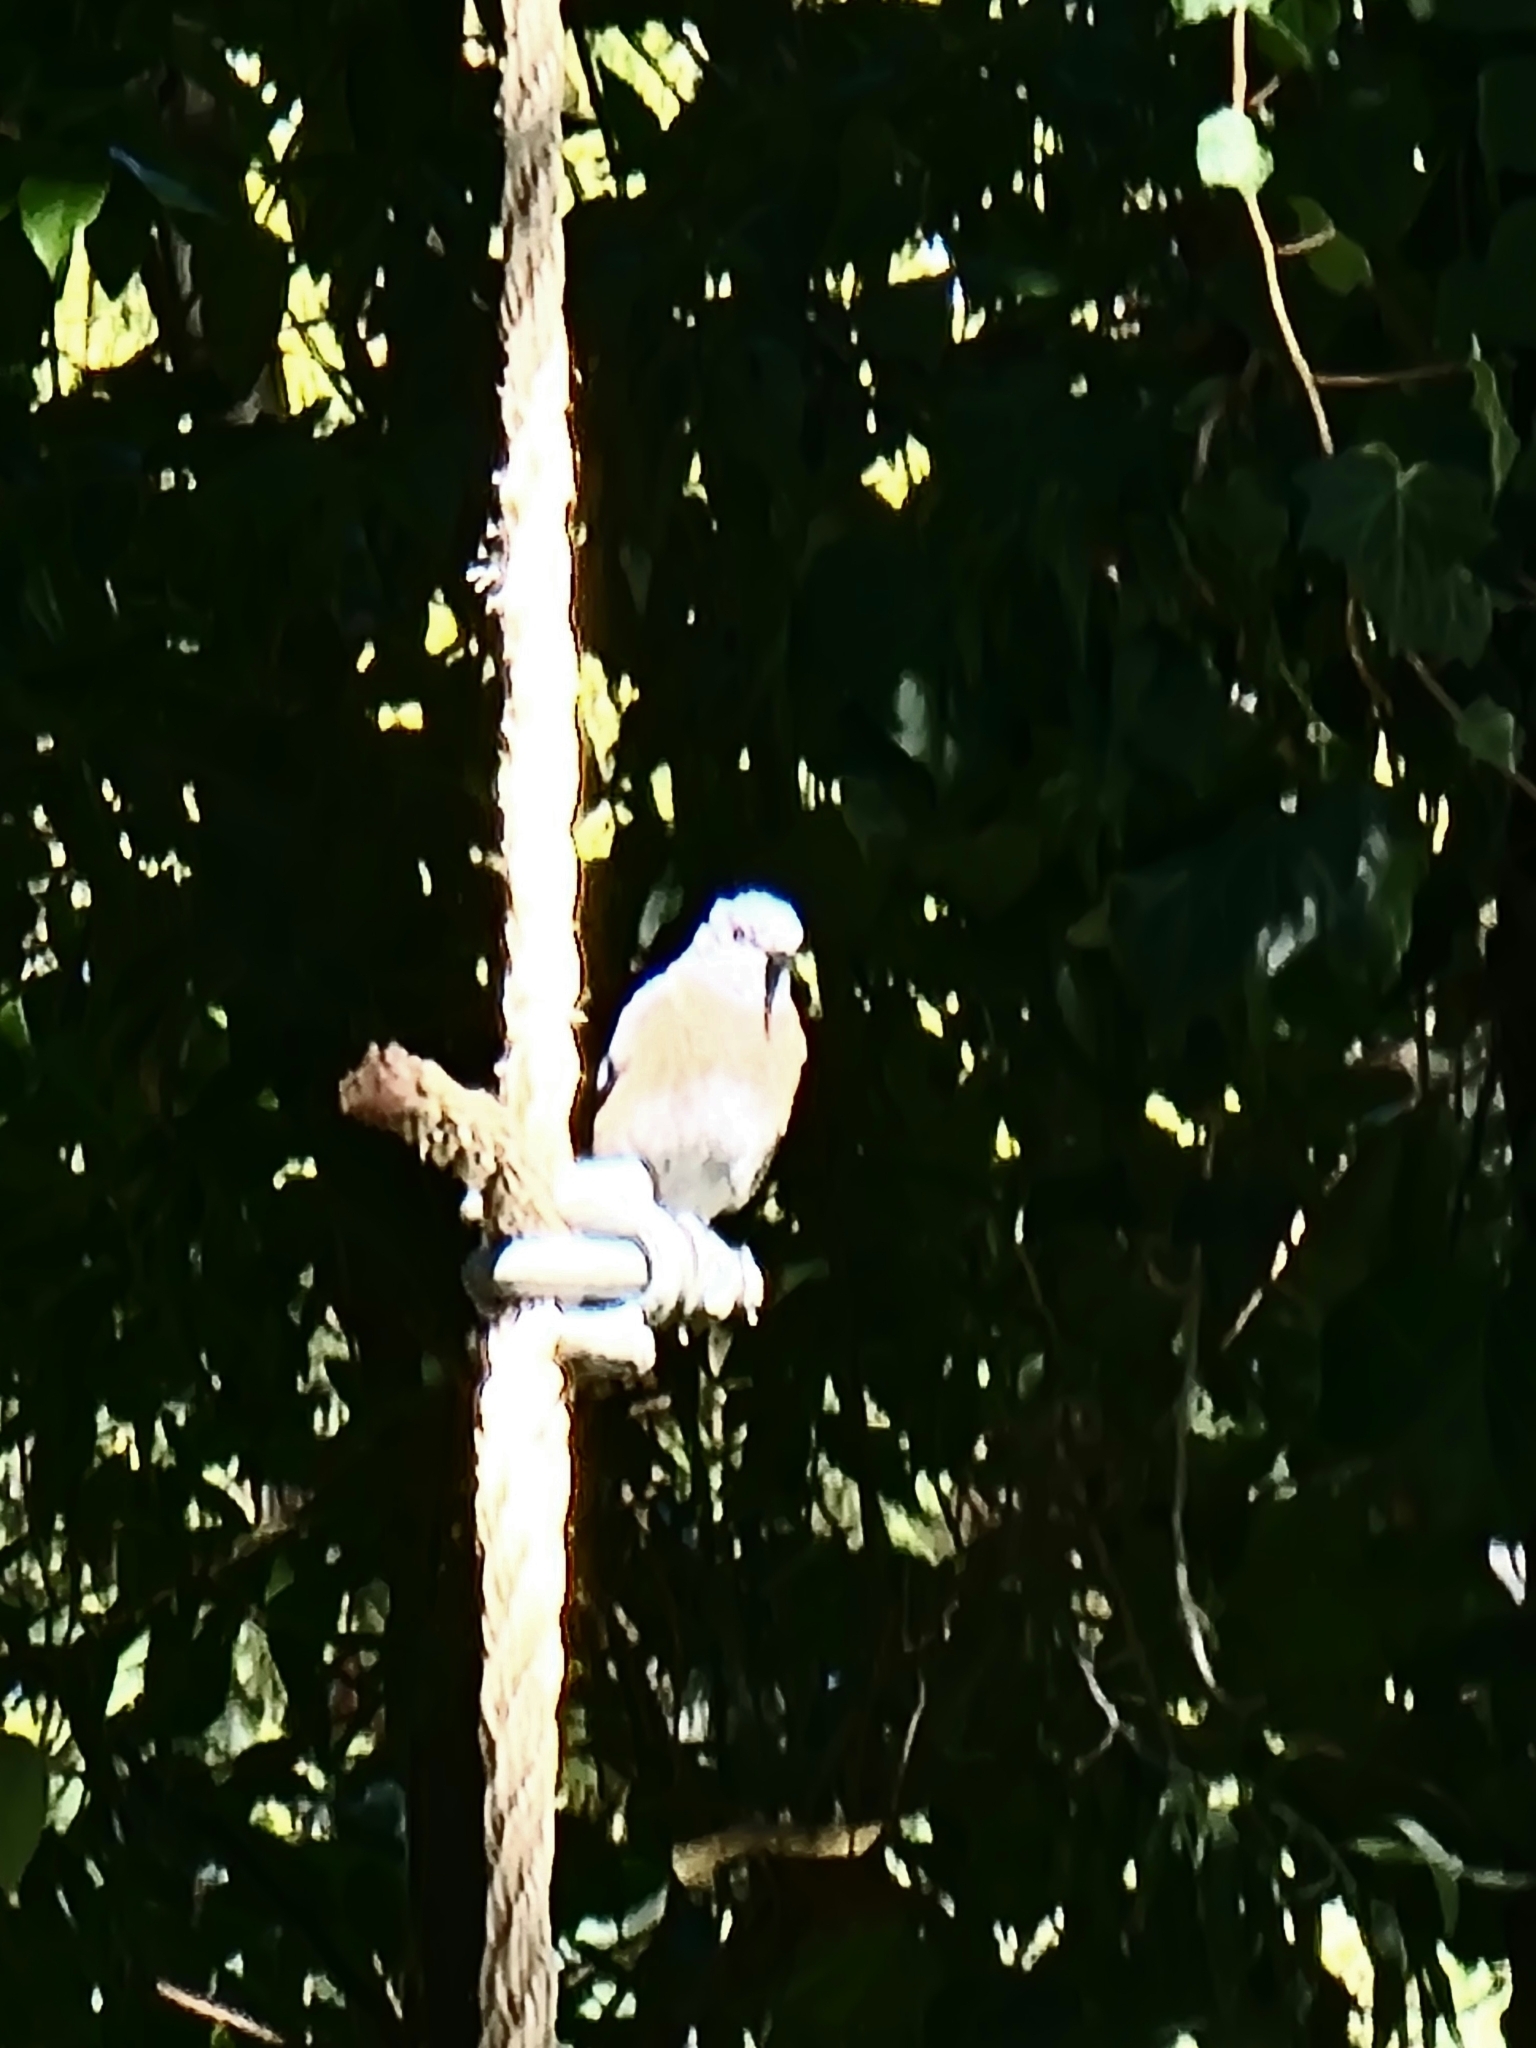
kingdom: Animalia
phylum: Chordata
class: Aves
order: Passeriformes
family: Turdidae
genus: Sialia
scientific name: Sialia mexicana
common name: Western bluebird
